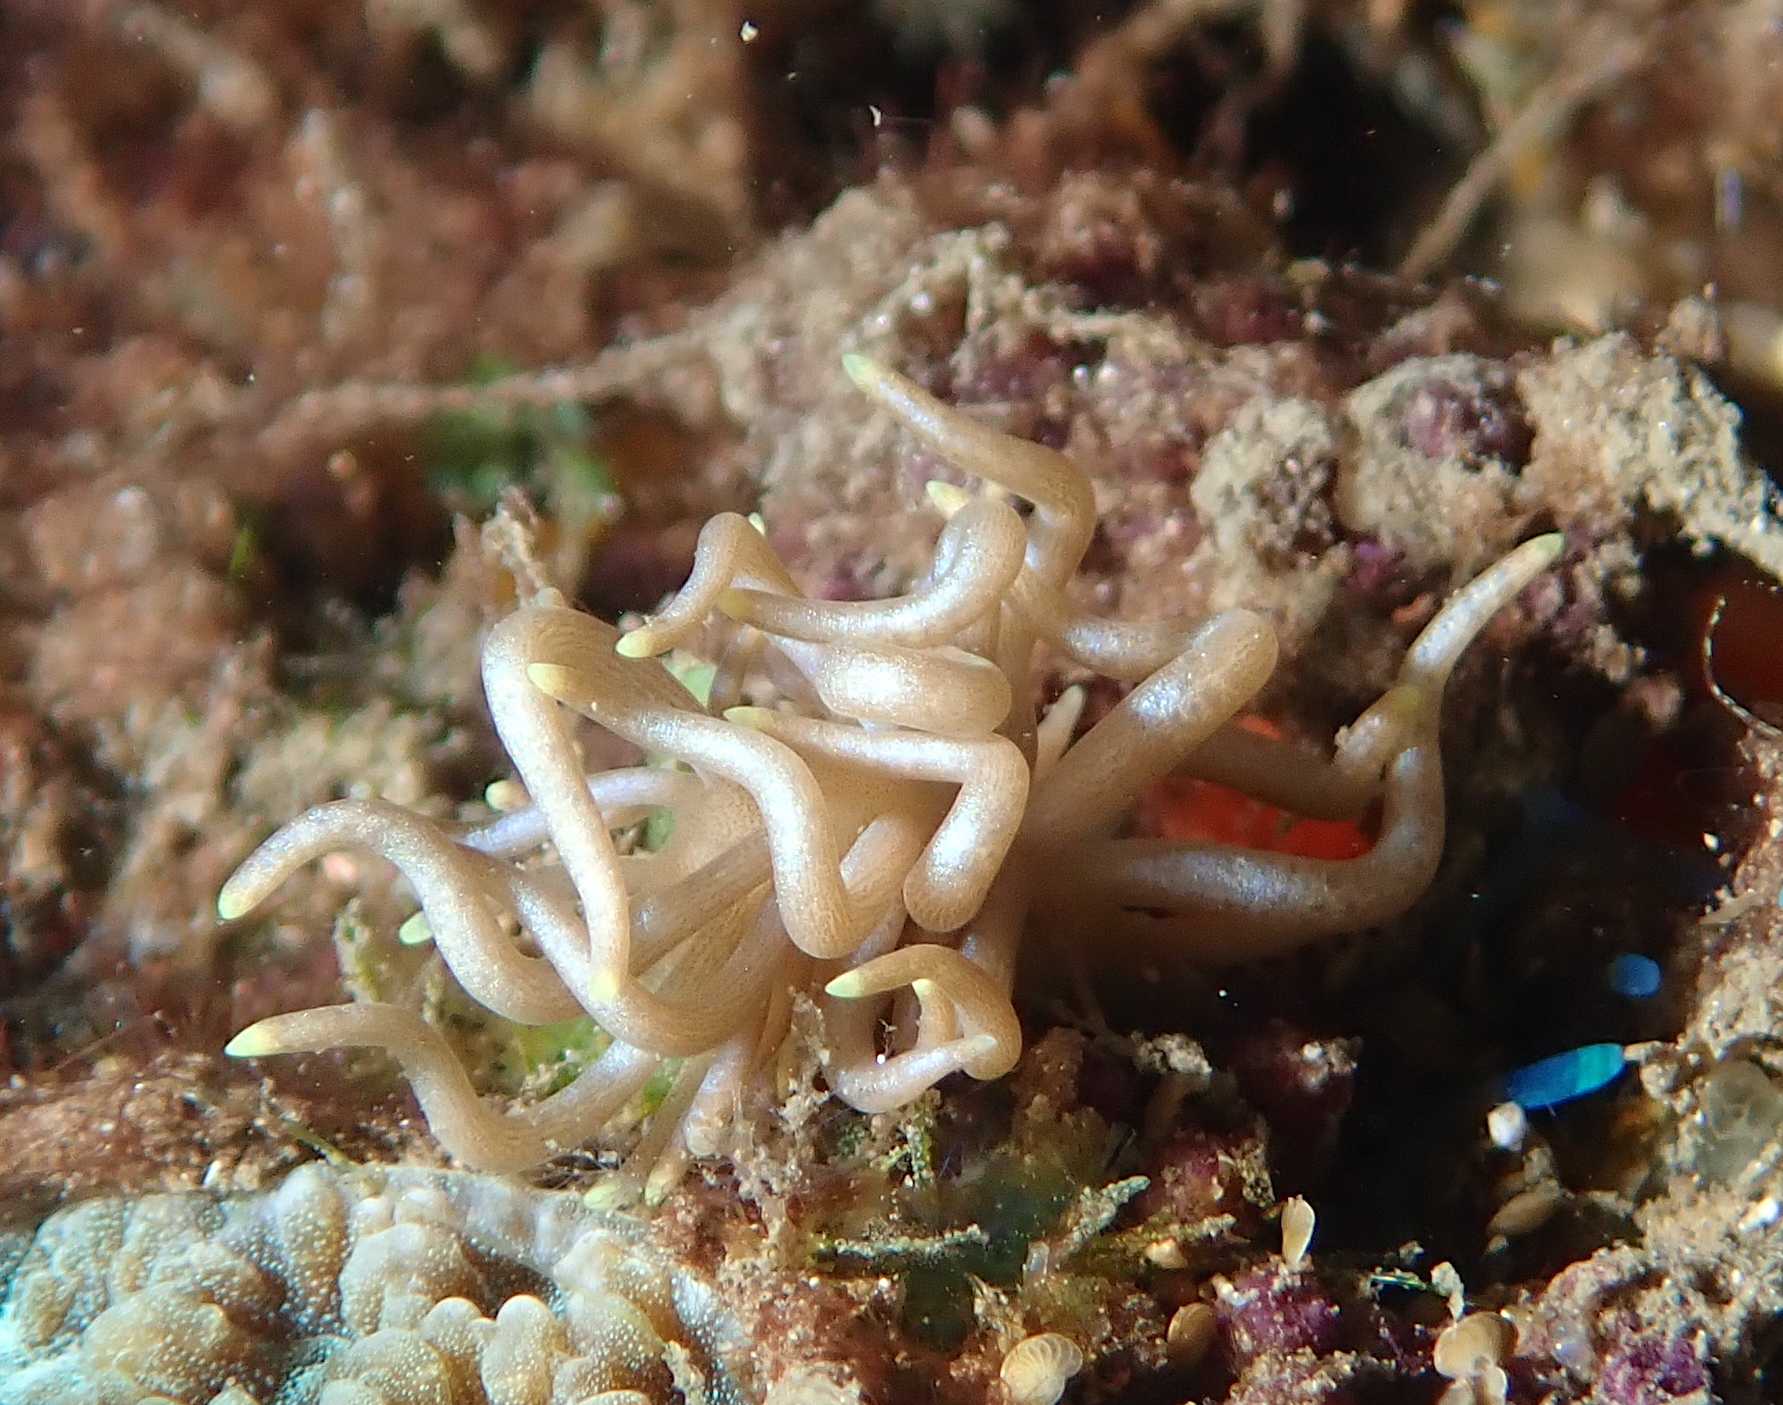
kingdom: Animalia
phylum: Mollusca
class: Gastropoda
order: Nudibranchia
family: Myrrhinidae
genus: Phyllodesmium
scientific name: Phyllodesmium briareum
